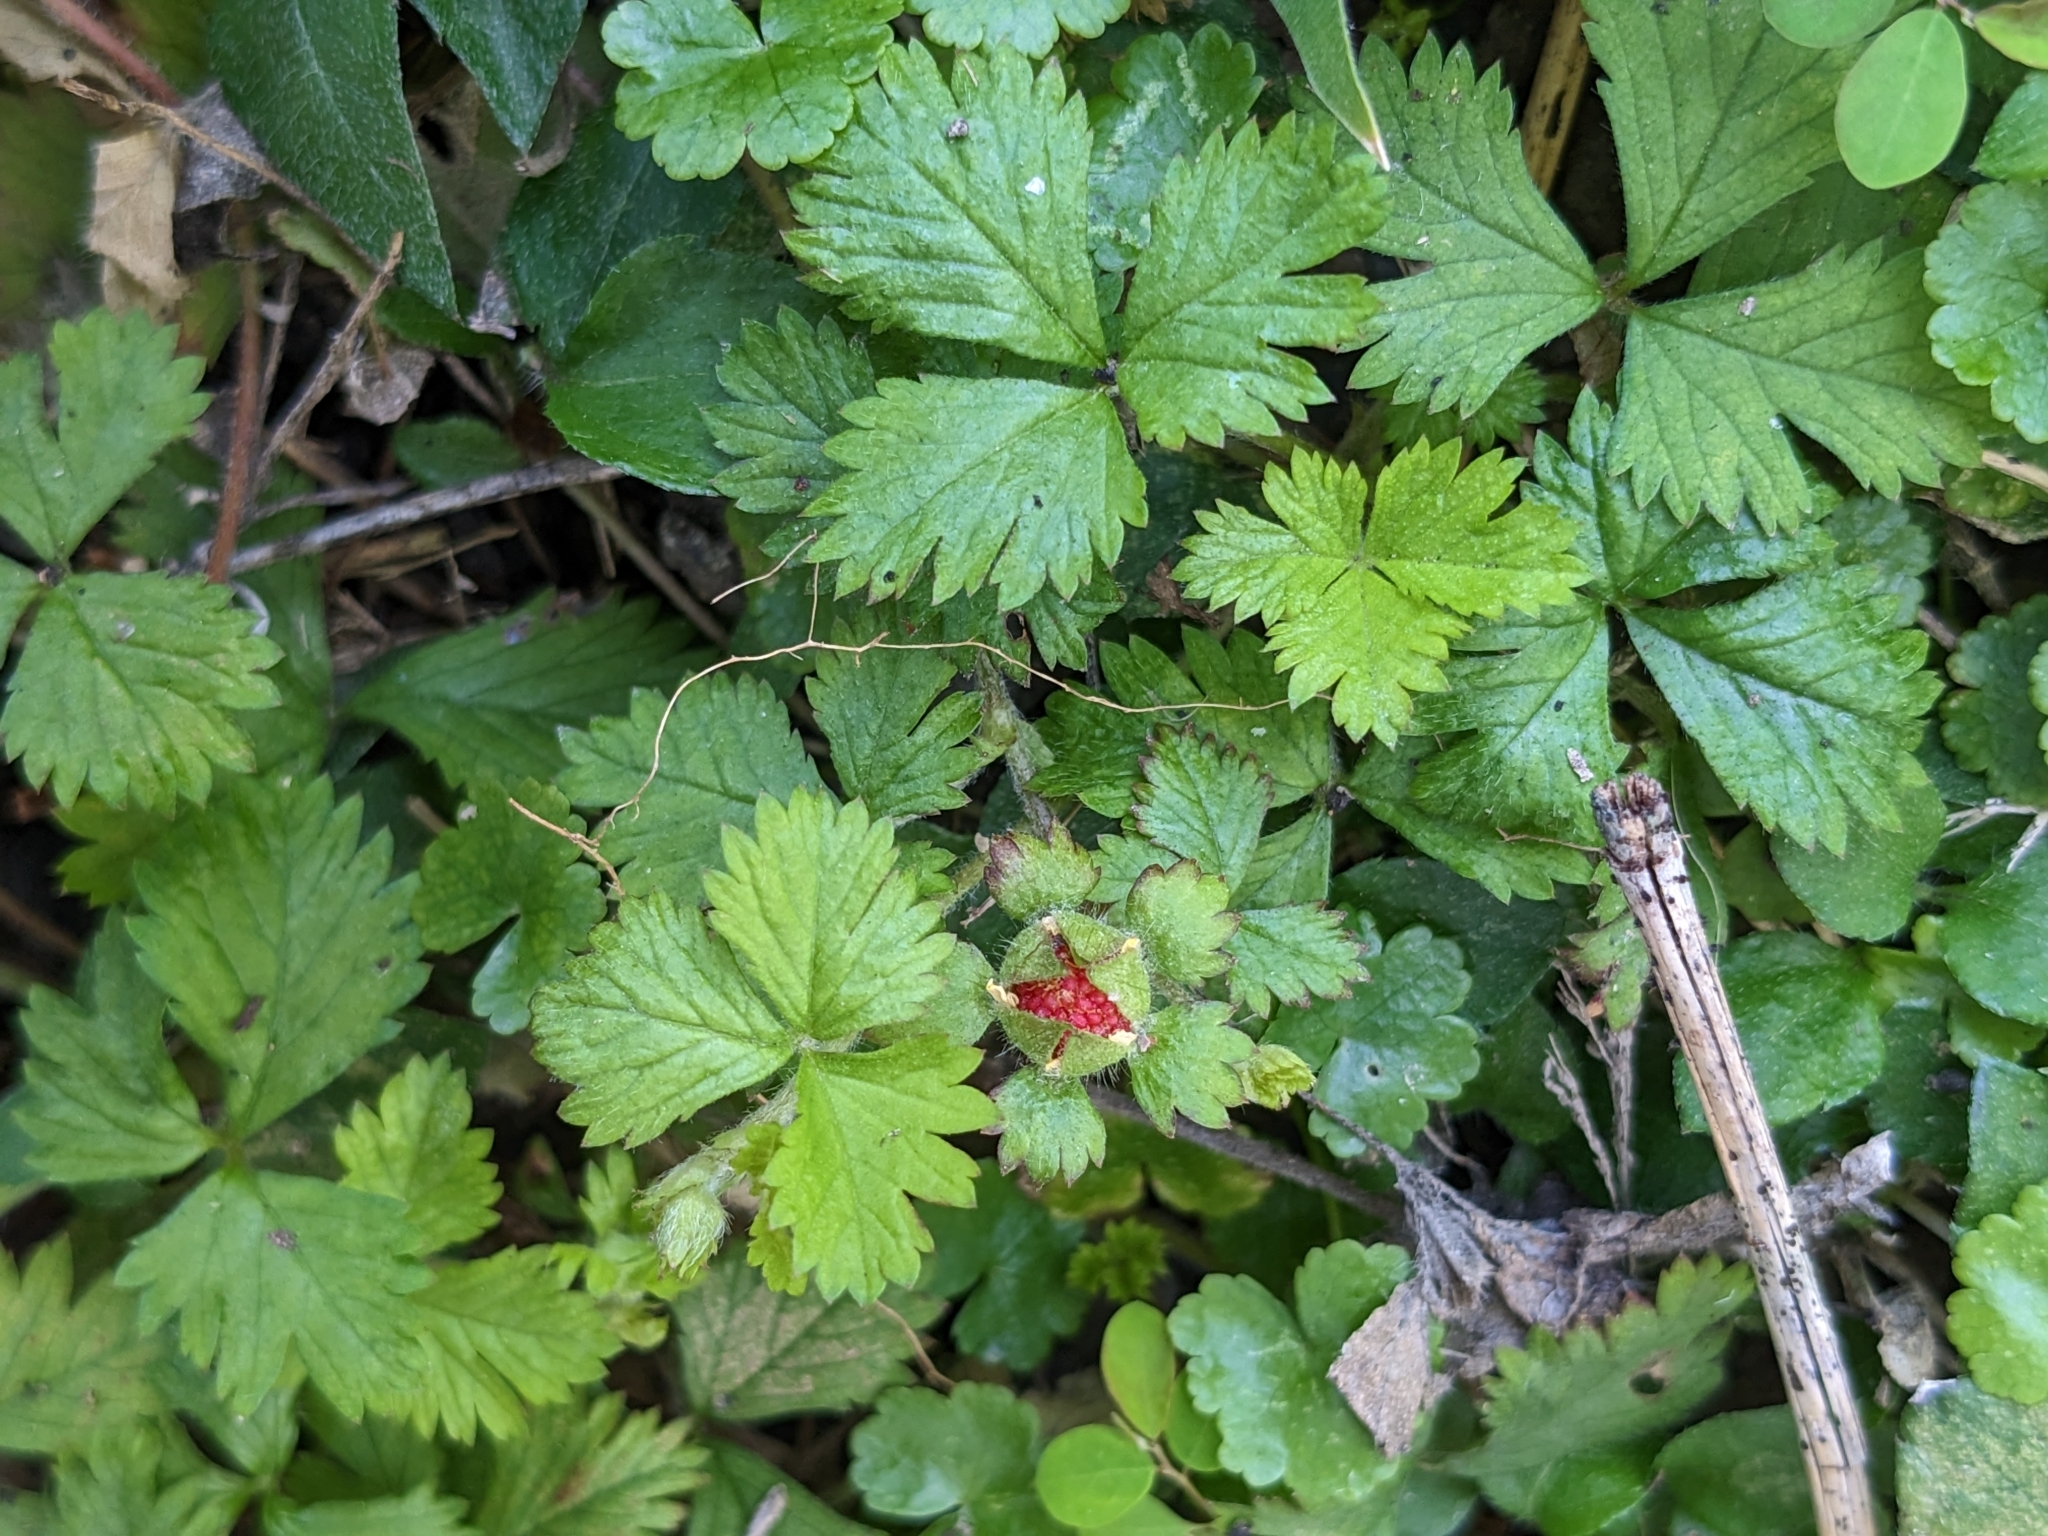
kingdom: Plantae
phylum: Tracheophyta
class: Magnoliopsida
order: Rosales
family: Rosaceae
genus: Potentilla
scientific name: Potentilla wallichiana
